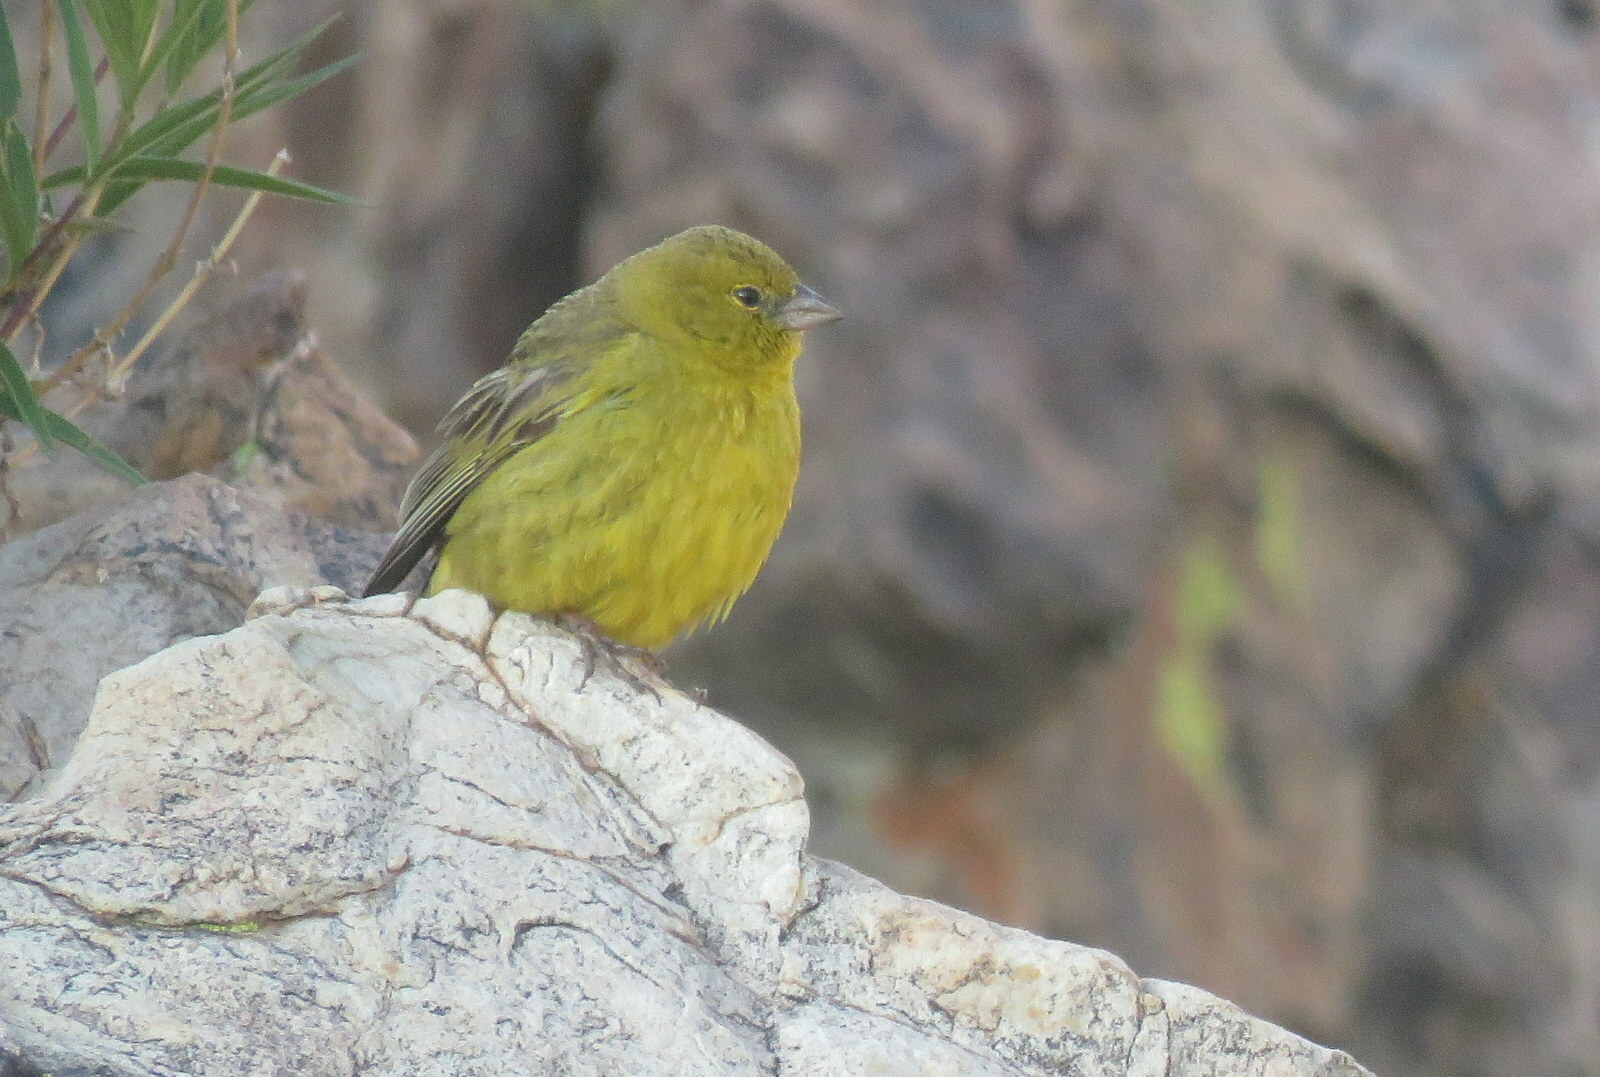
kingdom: Animalia
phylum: Chordata
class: Aves
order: Passeriformes
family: Thraupidae
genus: Sicalis
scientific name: Sicalis olivascens
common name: Greenish yellow finch
